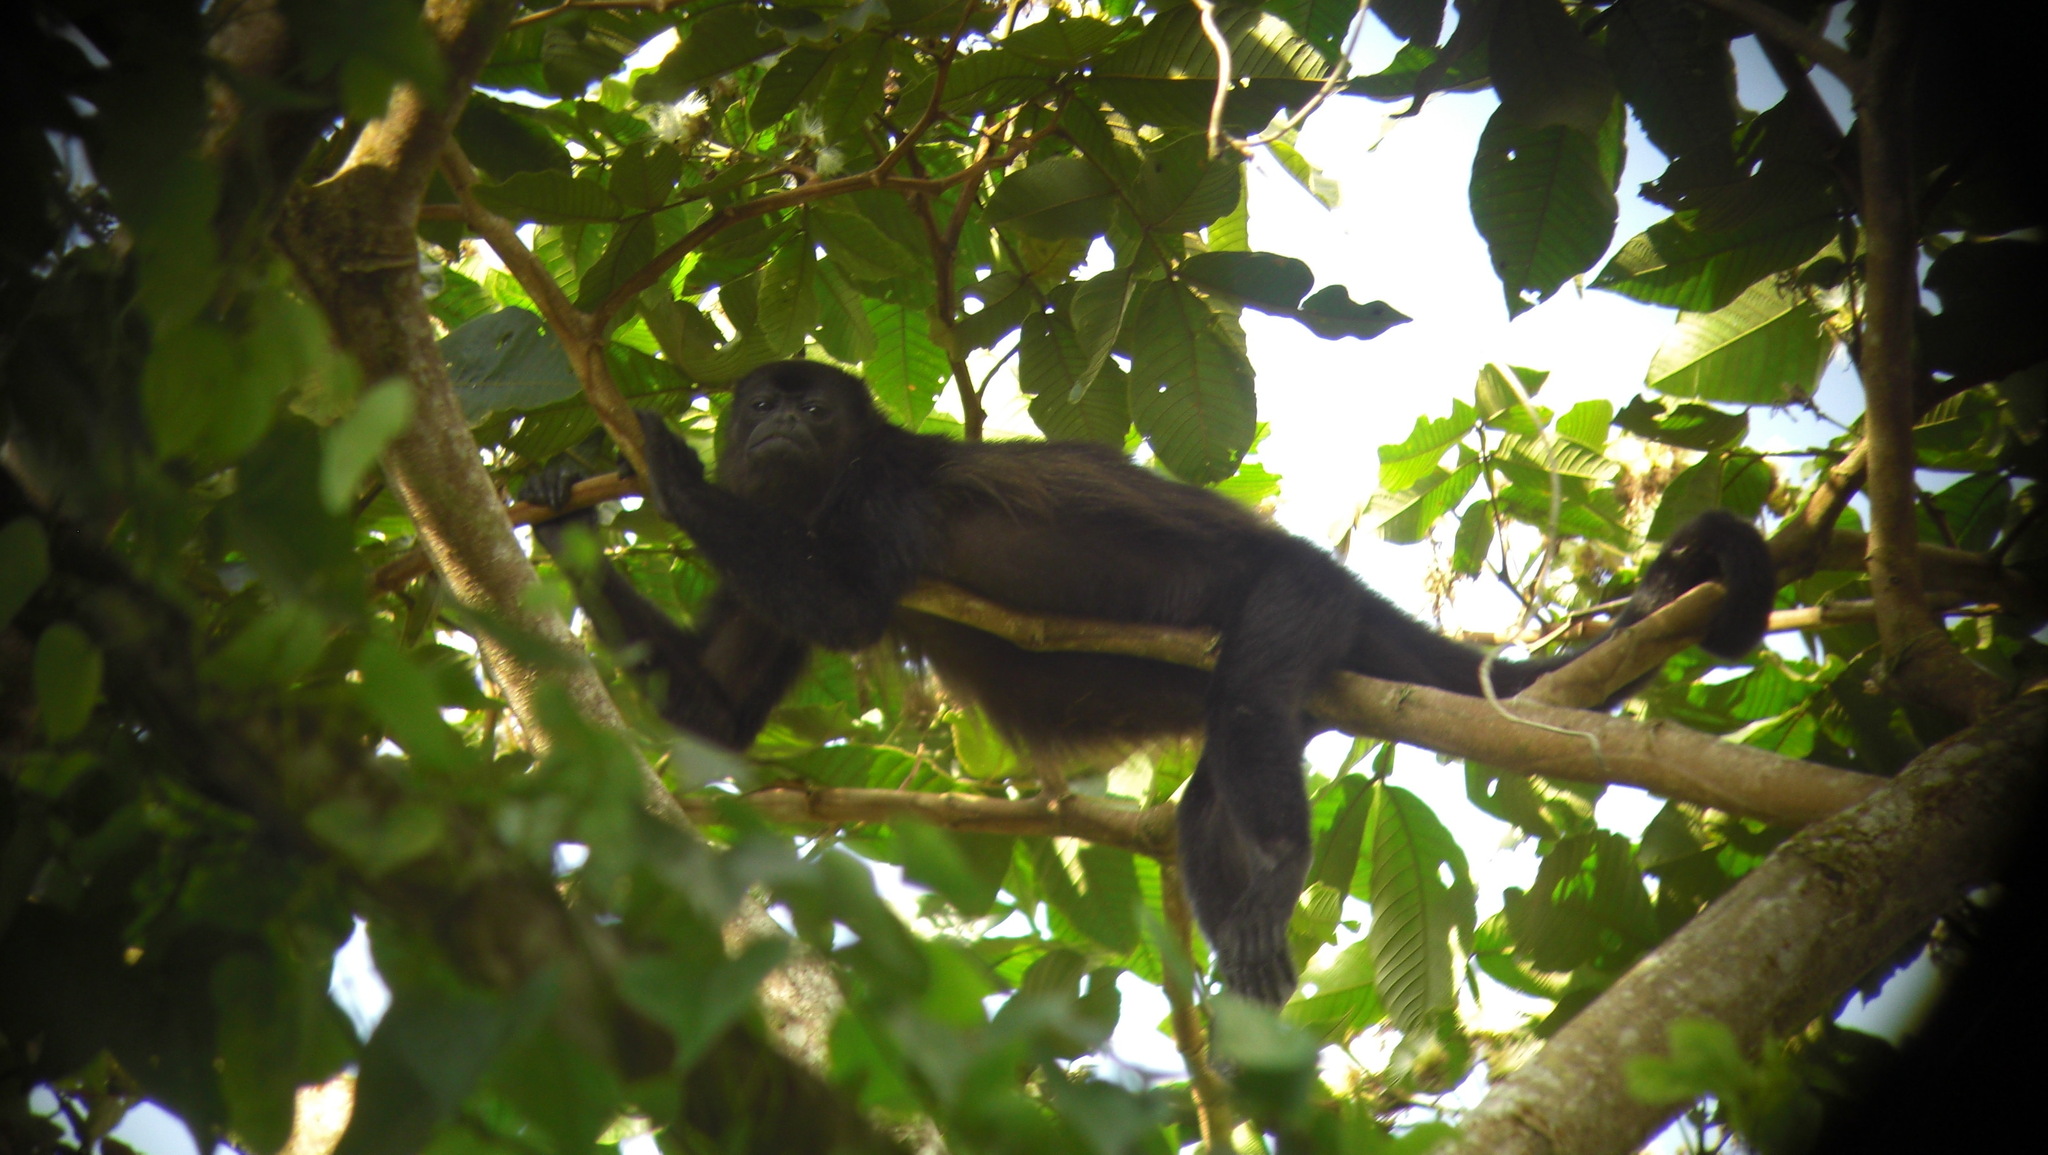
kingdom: Animalia
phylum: Chordata
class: Mammalia
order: Primates
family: Atelidae
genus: Alouatta
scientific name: Alouatta palliata
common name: Mantled howler
